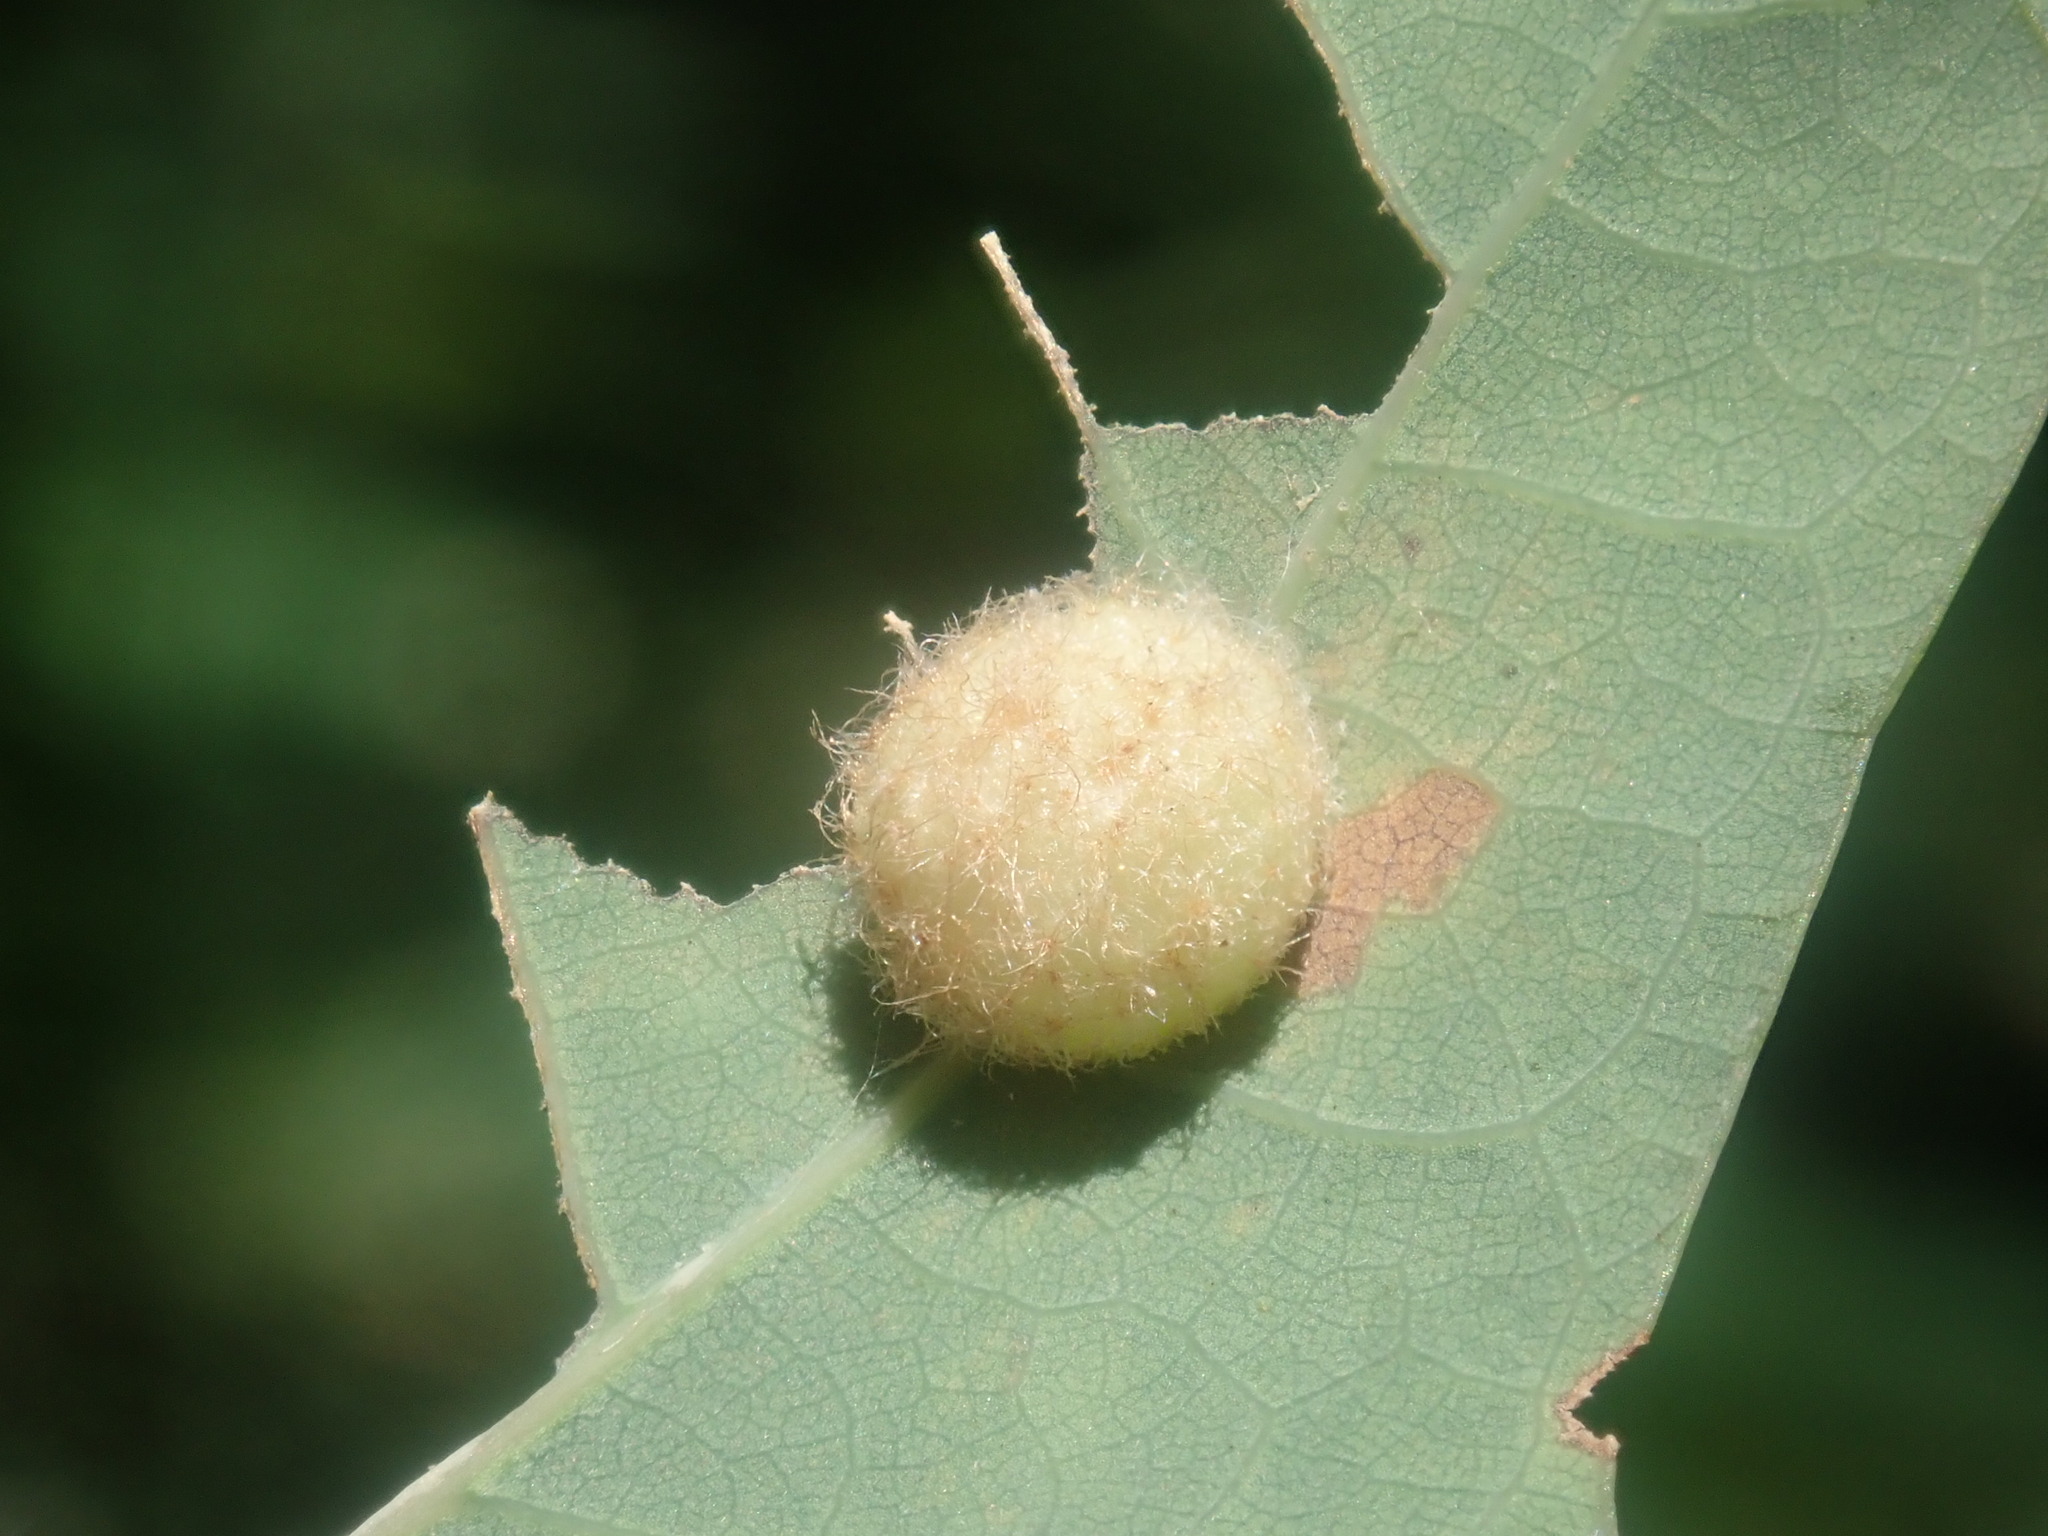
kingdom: Animalia
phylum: Arthropoda
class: Insecta
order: Hymenoptera
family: Cynipidae
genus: Philonix
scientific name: Philonix fulvicollis
